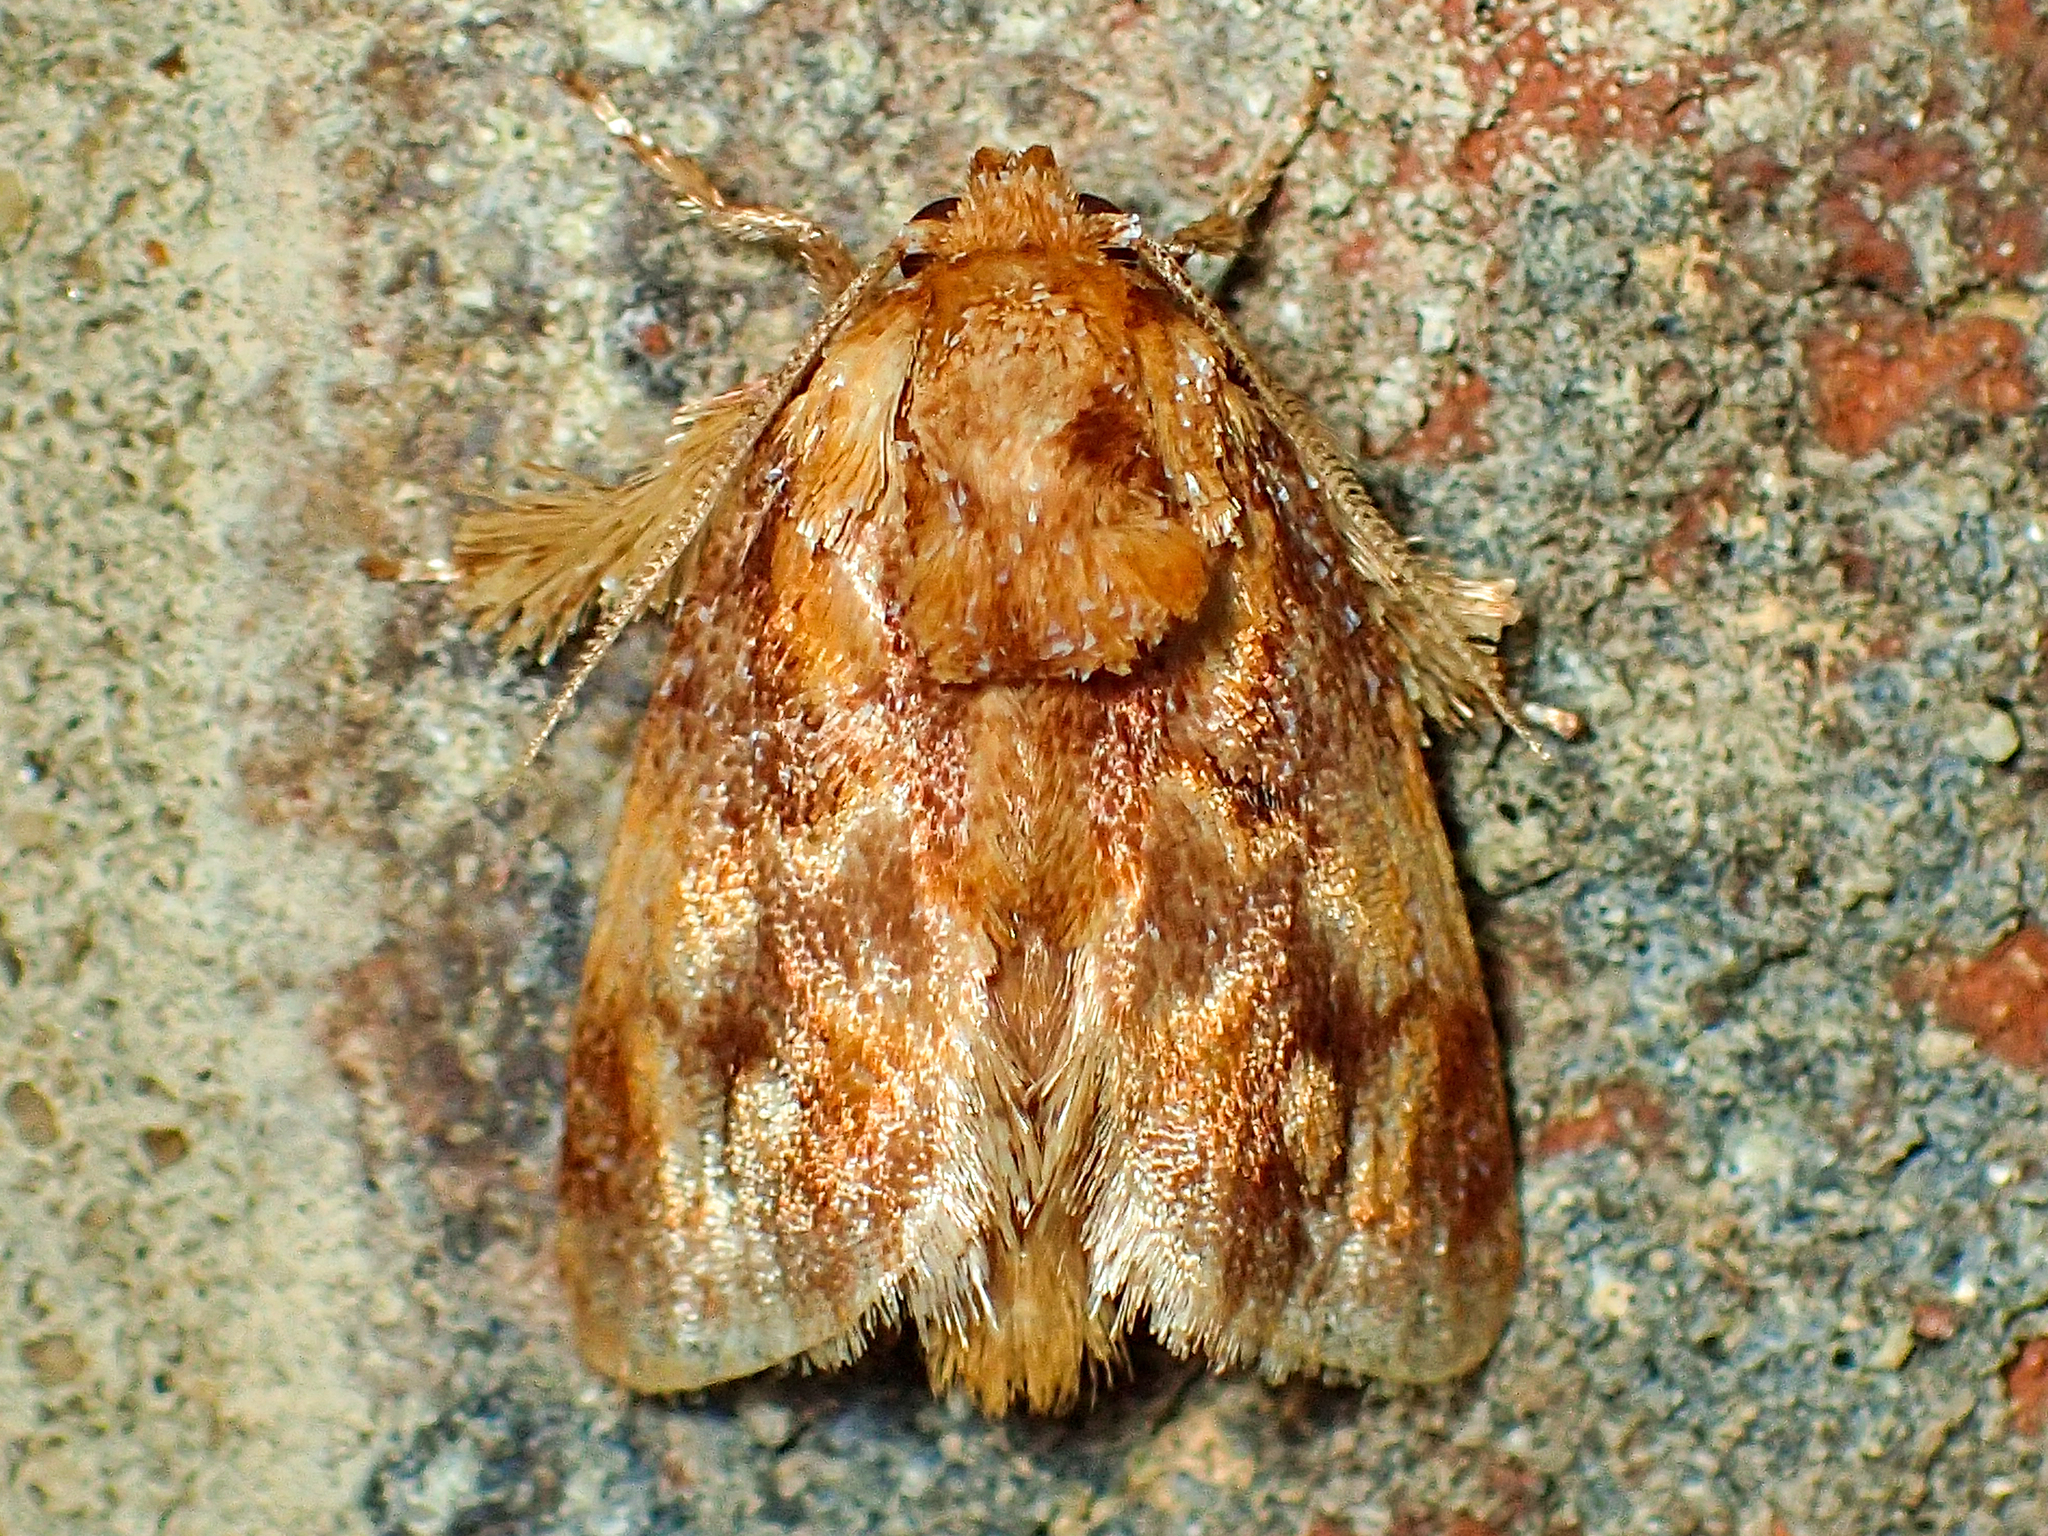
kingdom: Animalia
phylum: Arthropoda
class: Insecta
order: Lepidoptera
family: Limacodidae
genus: Isochaetes
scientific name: Isochaetes beutenmuelleri
